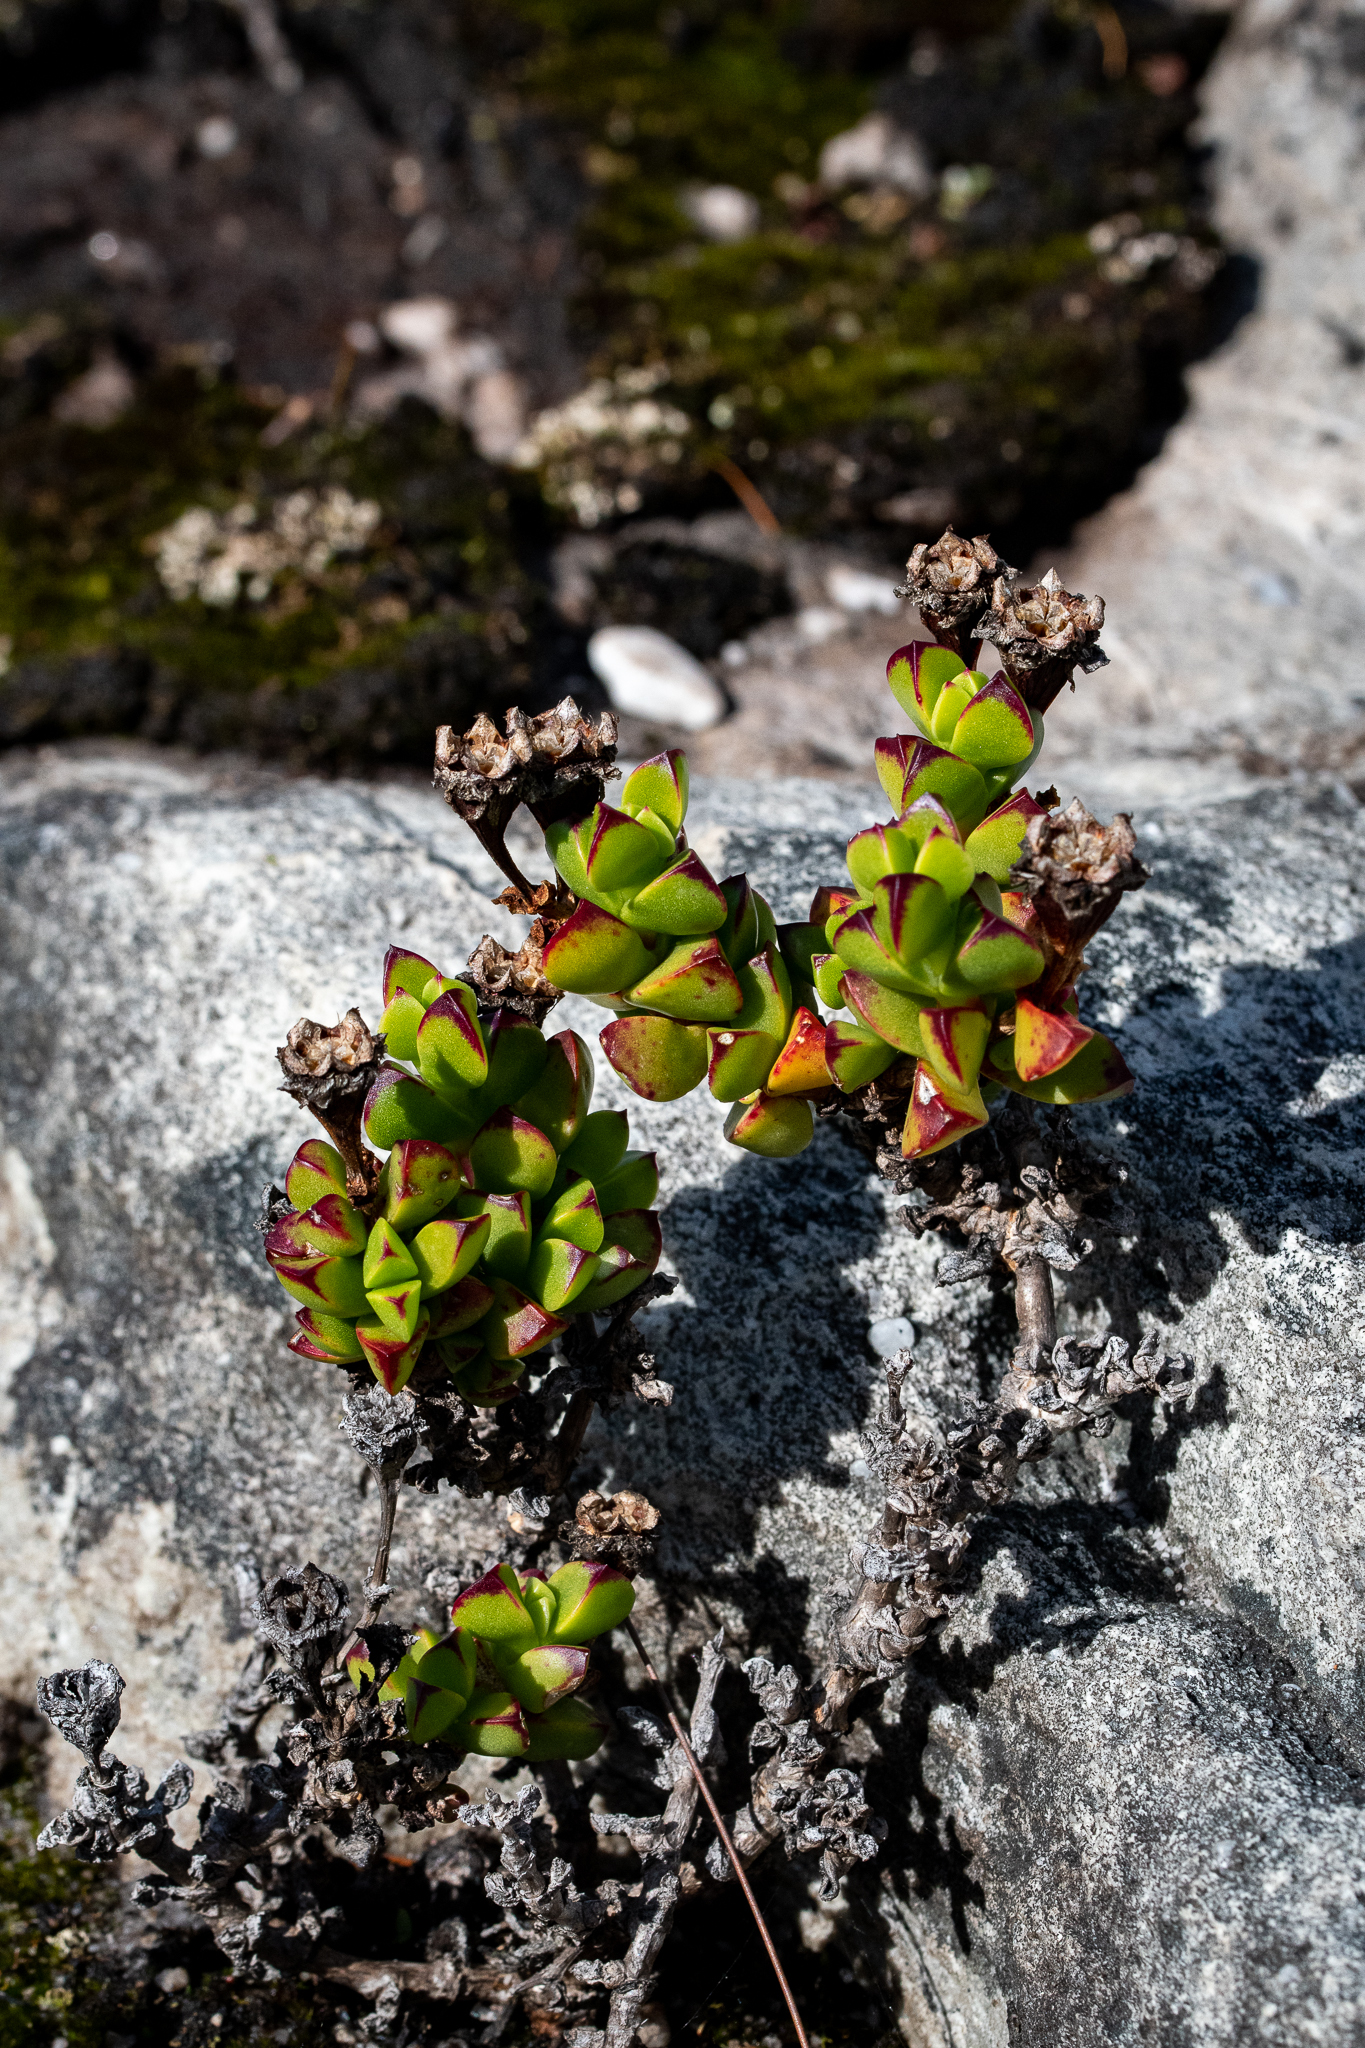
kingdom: Plantae
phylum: Tracheophyta
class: Magnoliopsida
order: Caryophyllales
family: Aizoaceae
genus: Erepsia
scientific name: Erepsia inclaudens
